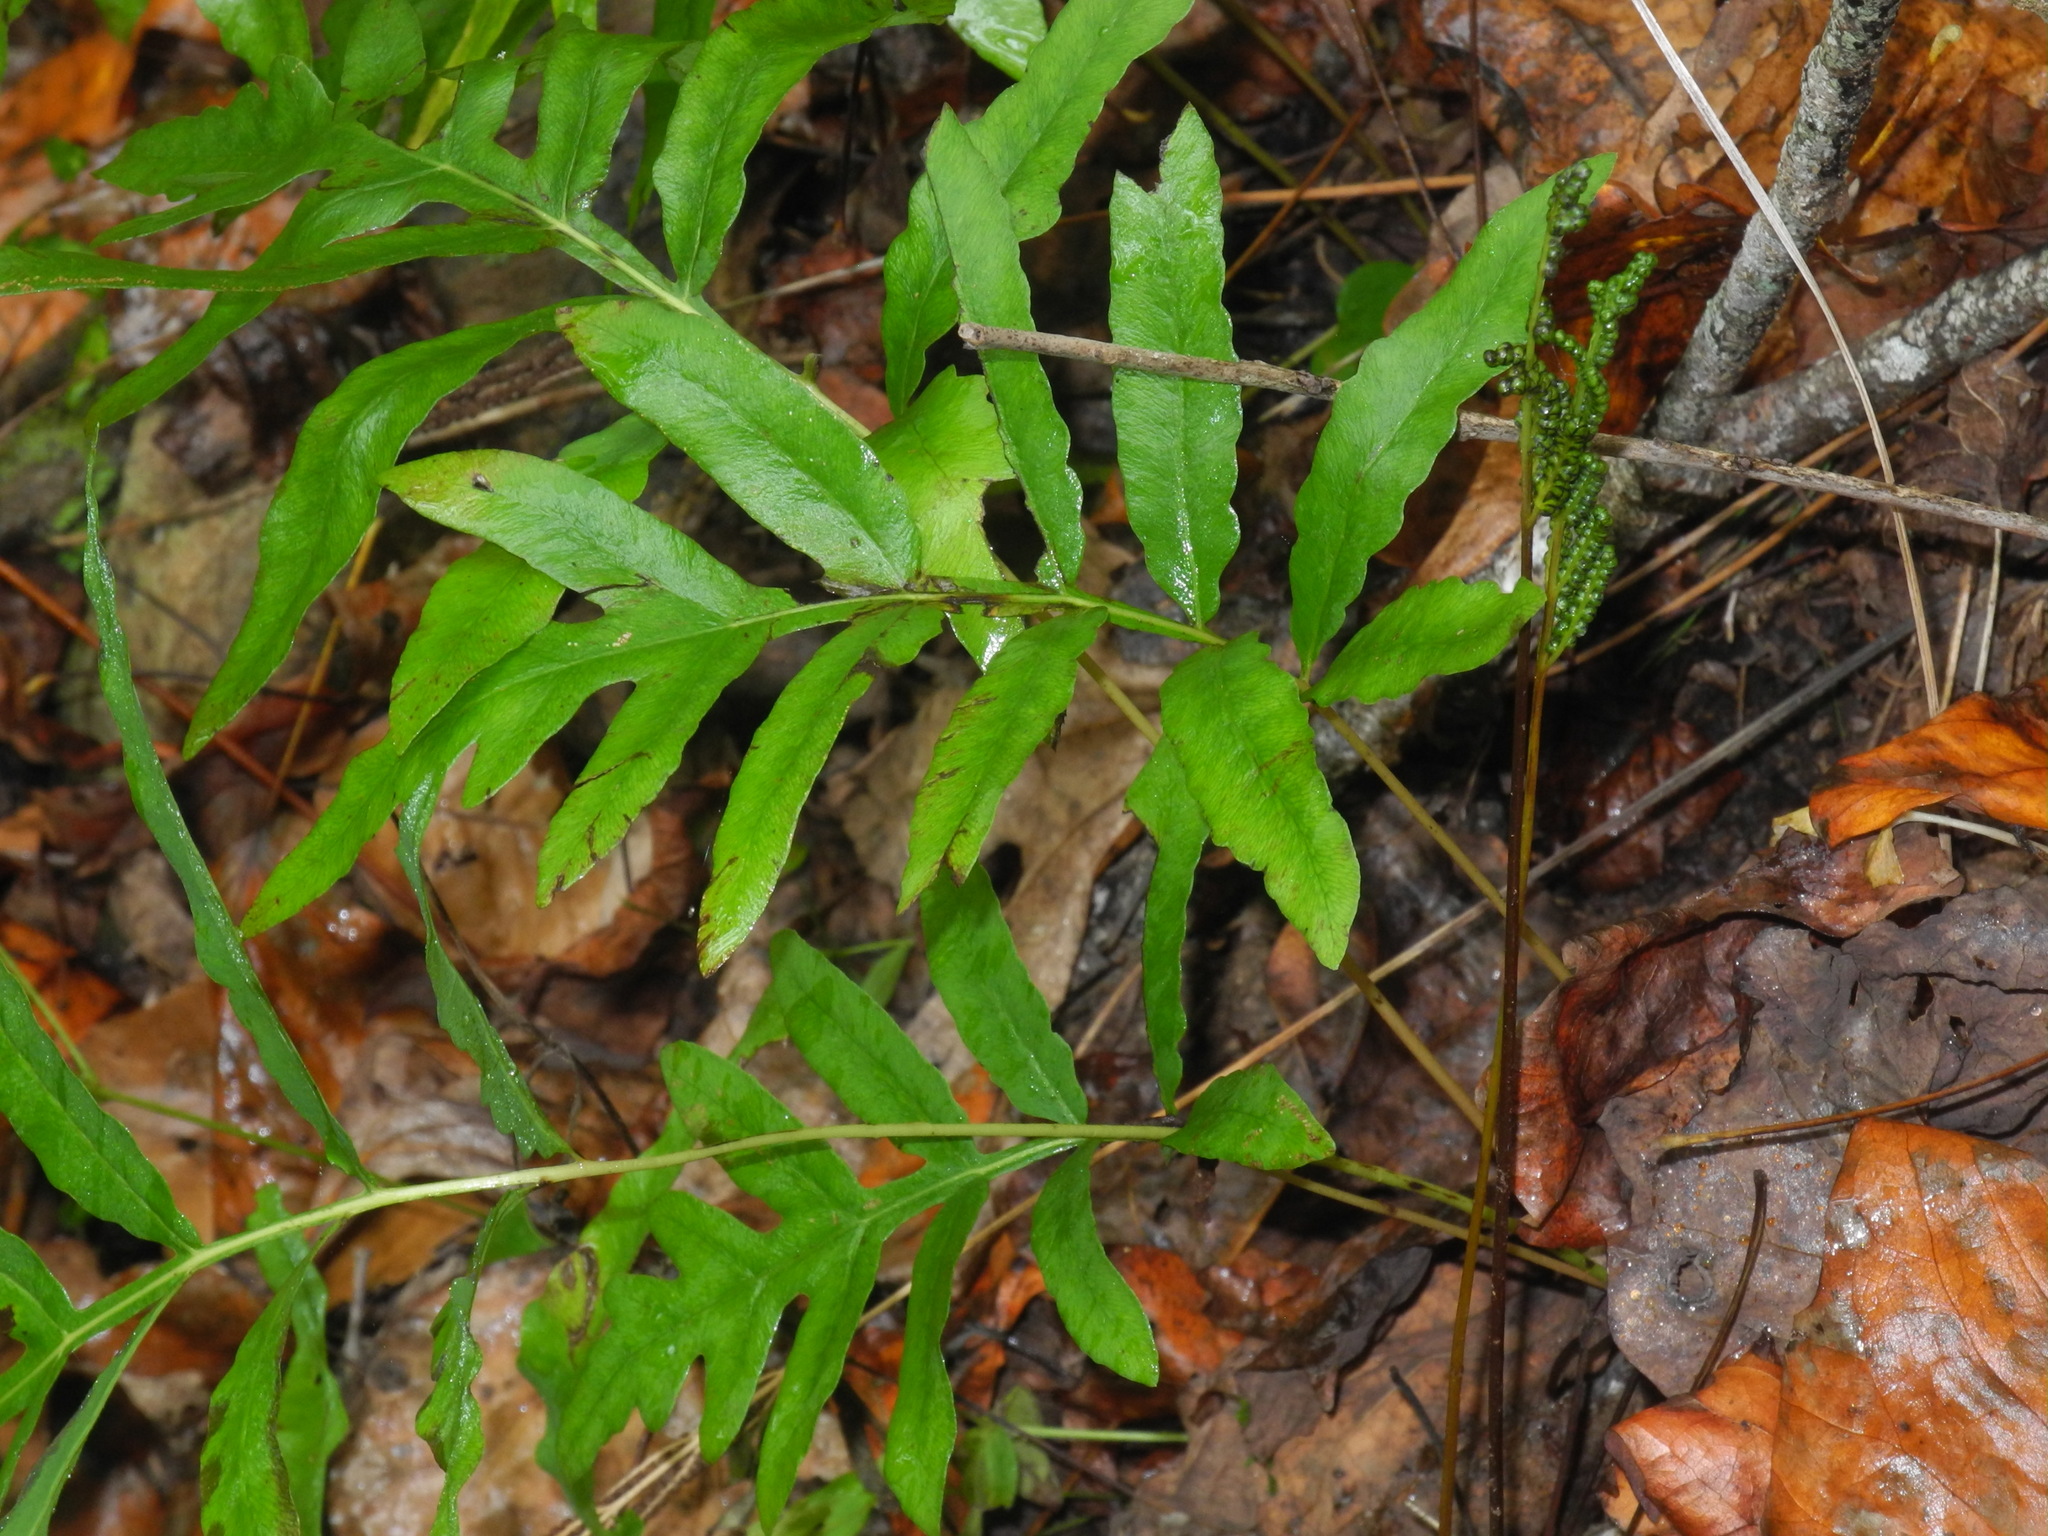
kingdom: Plantae
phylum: Tracheophyta
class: Polypodiopsida
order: Polypodiales
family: Onocleaceae
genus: Onoclea
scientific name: Onoclea sensibilis
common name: Sensitive fern
